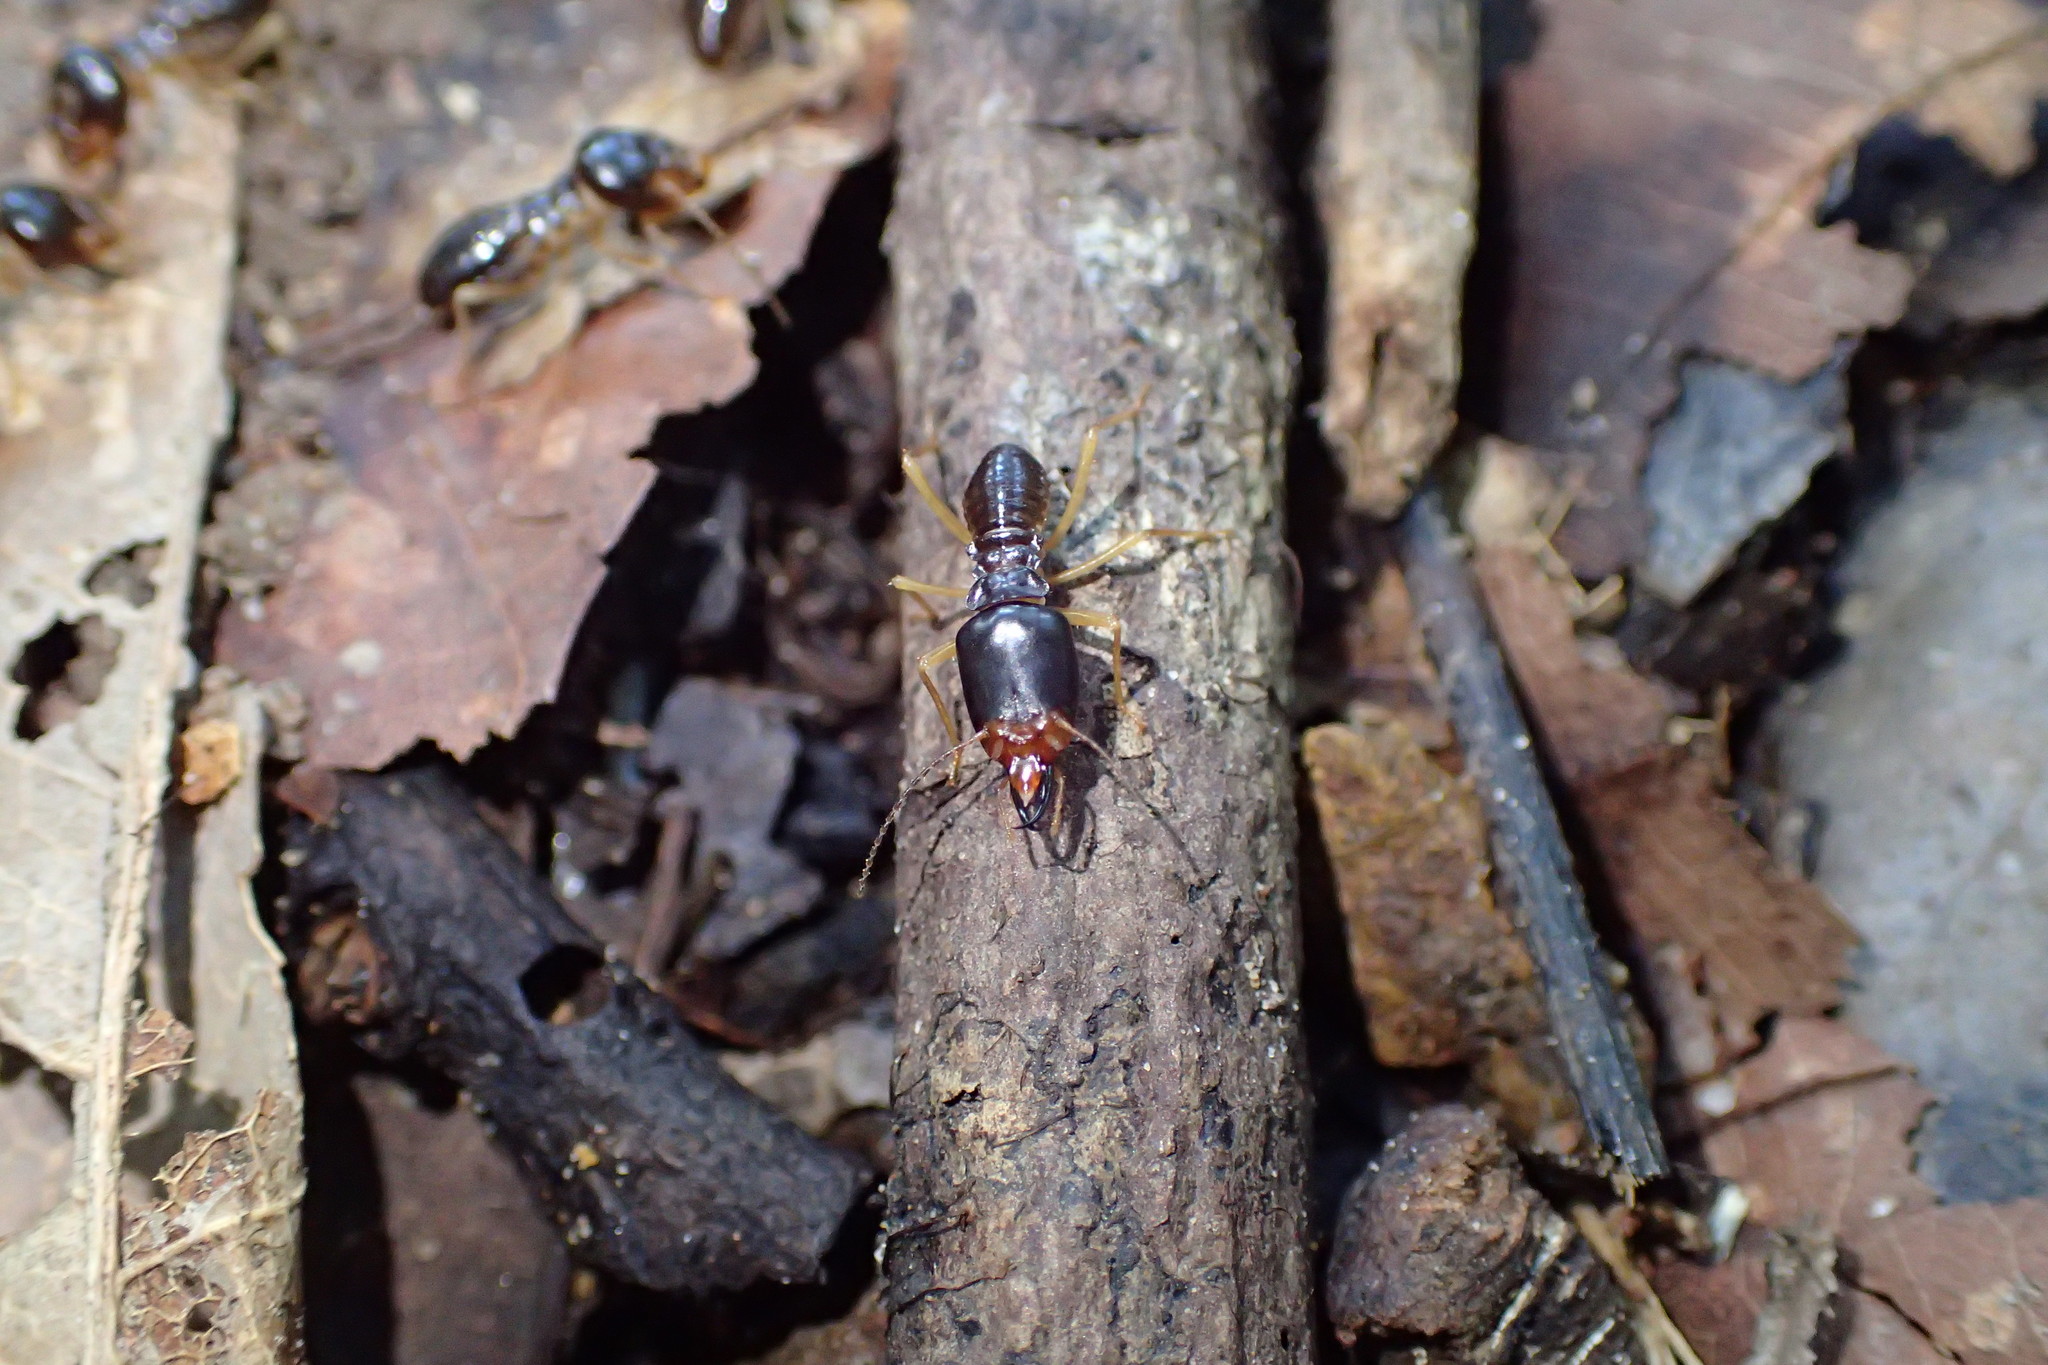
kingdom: Animalia
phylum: Arthropoda
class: Insecta
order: Blattodea
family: Termitidae
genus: Macrotermes
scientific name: Macrotermes carbonarius
